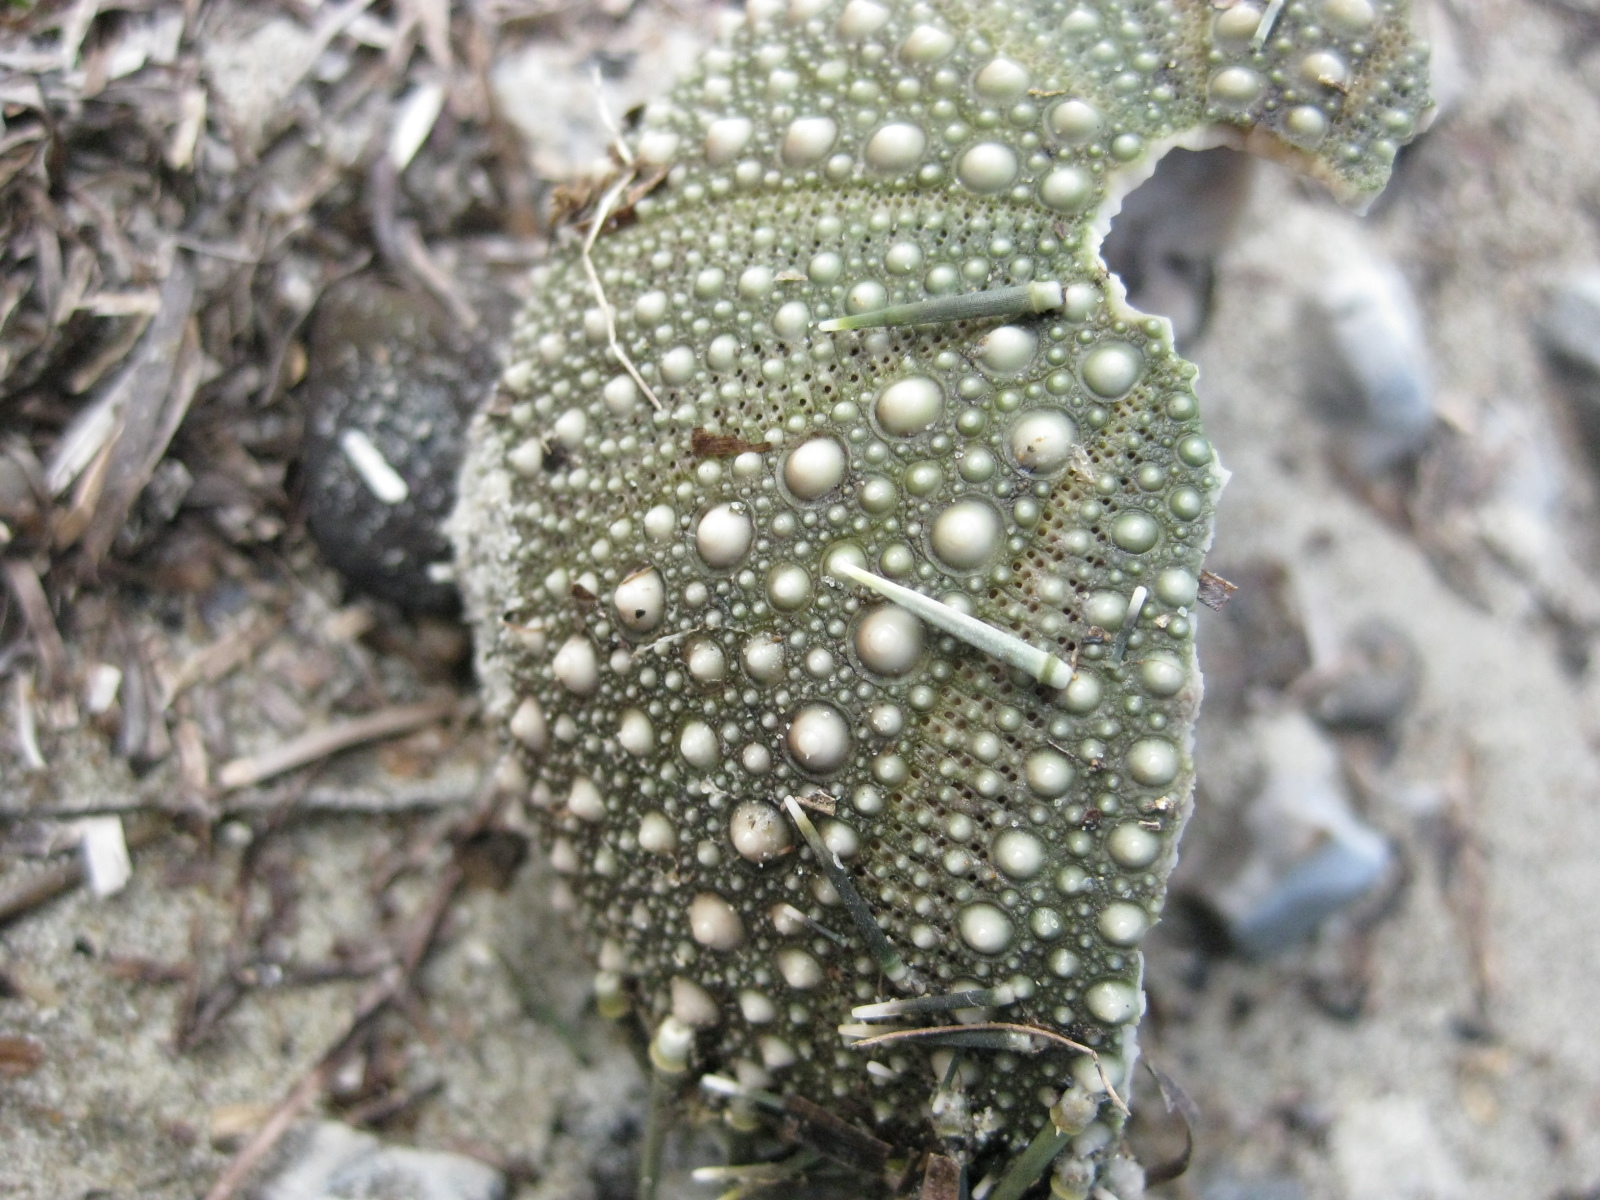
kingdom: Animalia
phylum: Echinodermata
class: Echinoidea
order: Camarodonta
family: Echinometridae
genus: Evechinus
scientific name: Evechinus chloroticus
